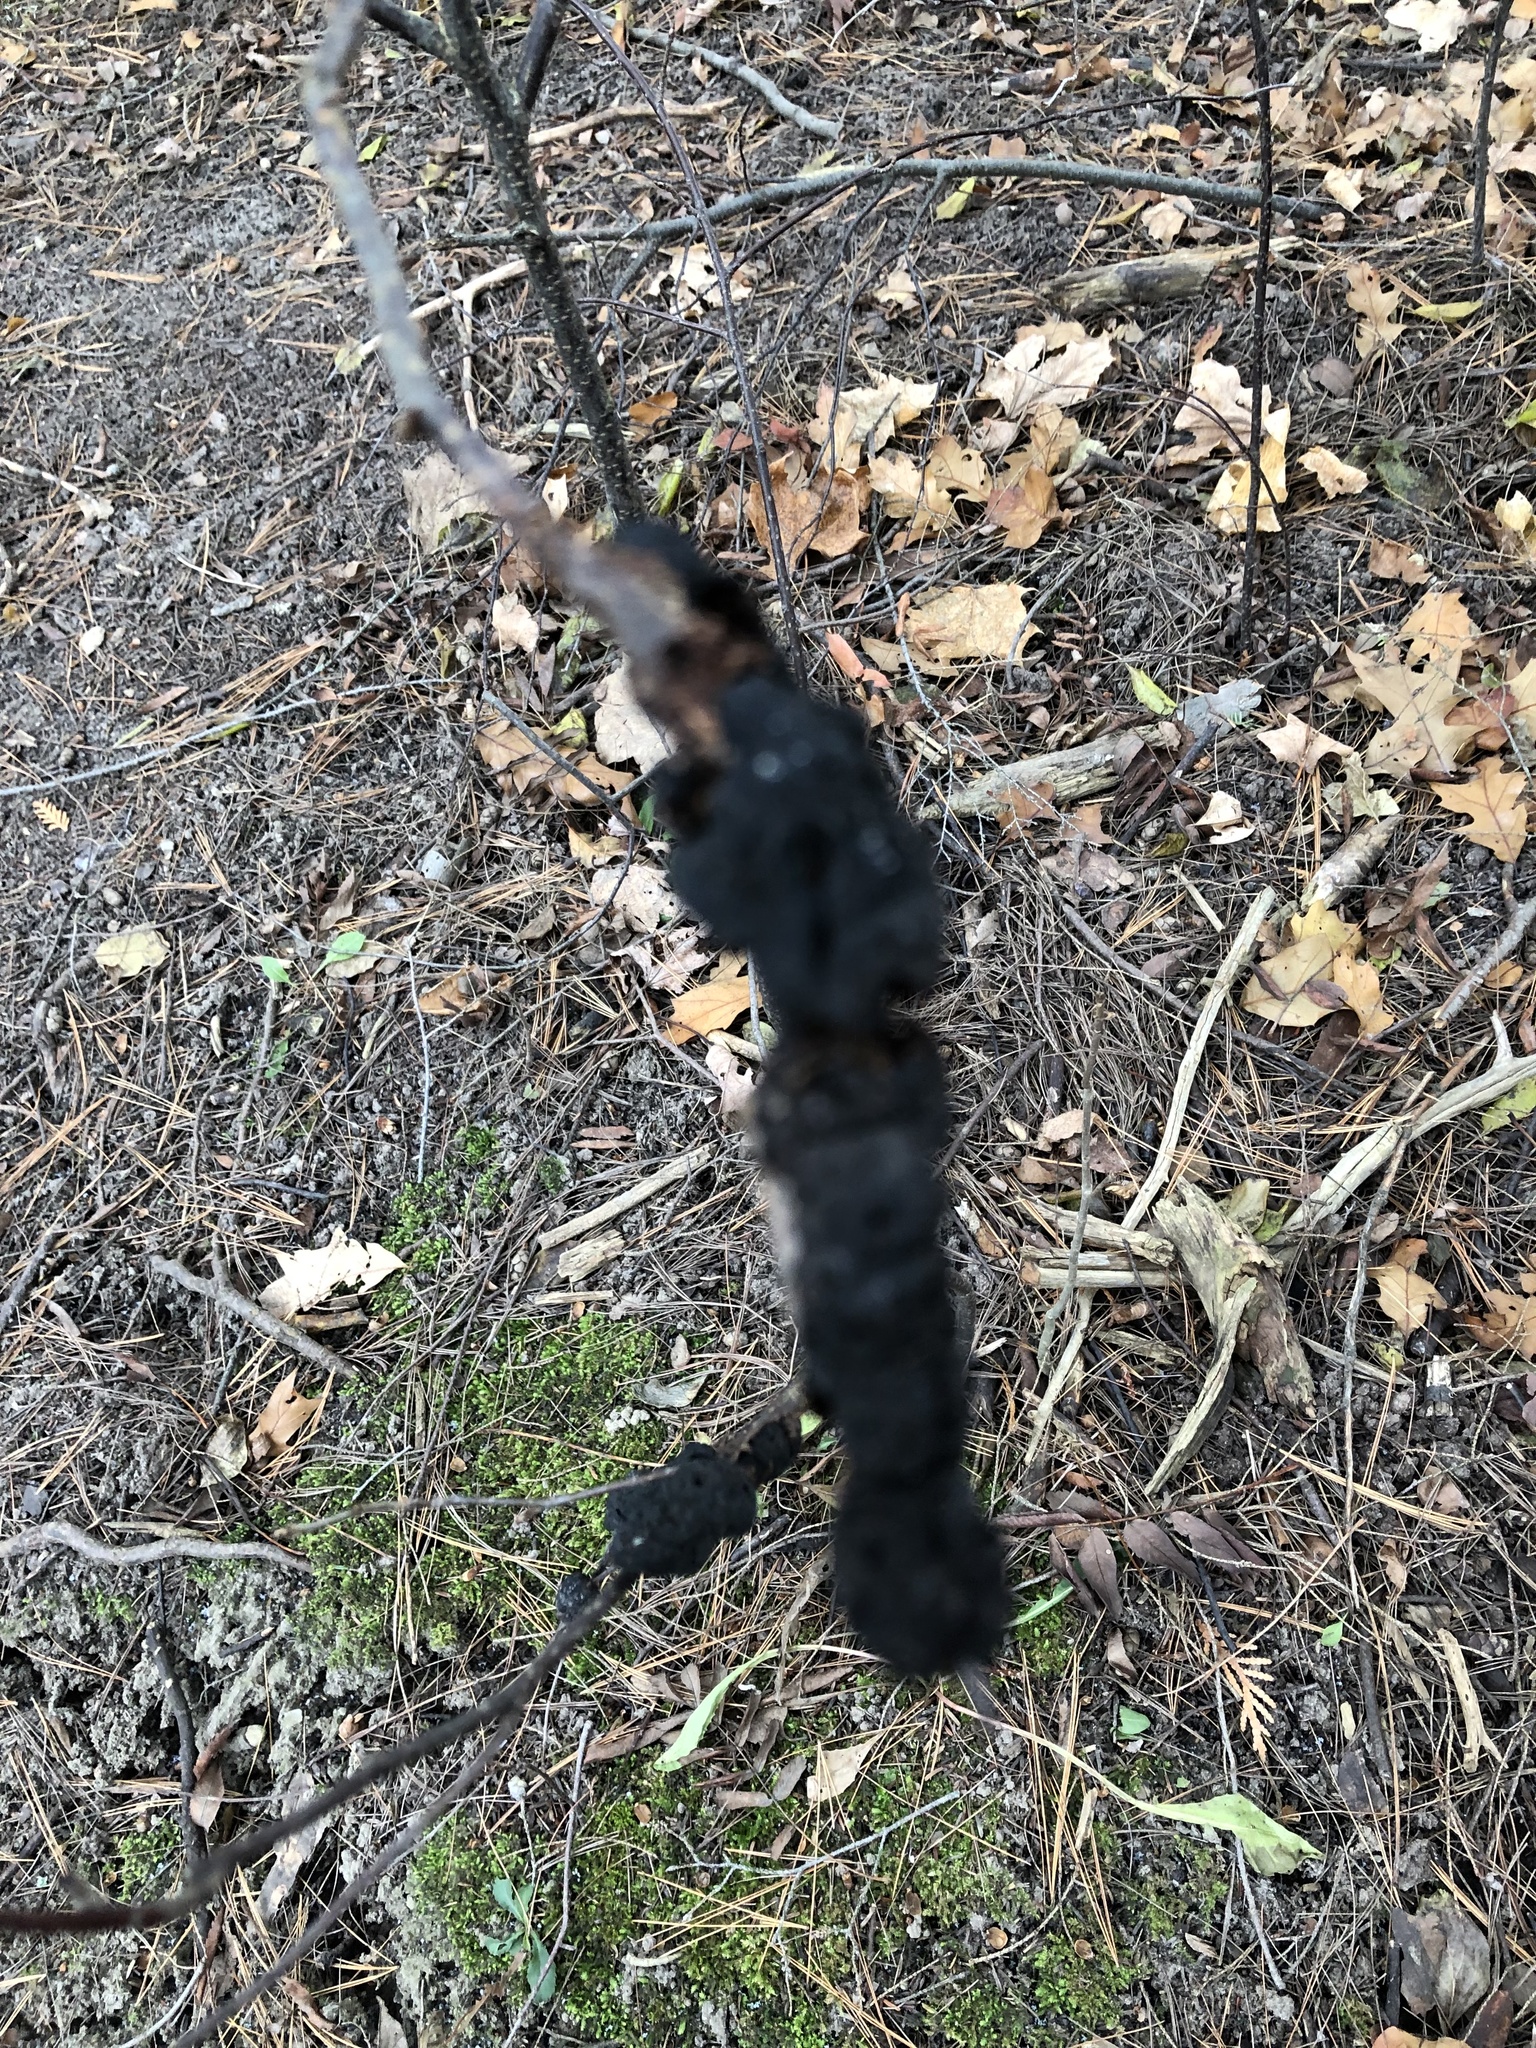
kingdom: Fungi
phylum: Ascomycota
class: Dothideomycetes
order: Venturiales
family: Venturiaceae
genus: Apiosporina
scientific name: Apiosporina morbosa
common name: Black knot
